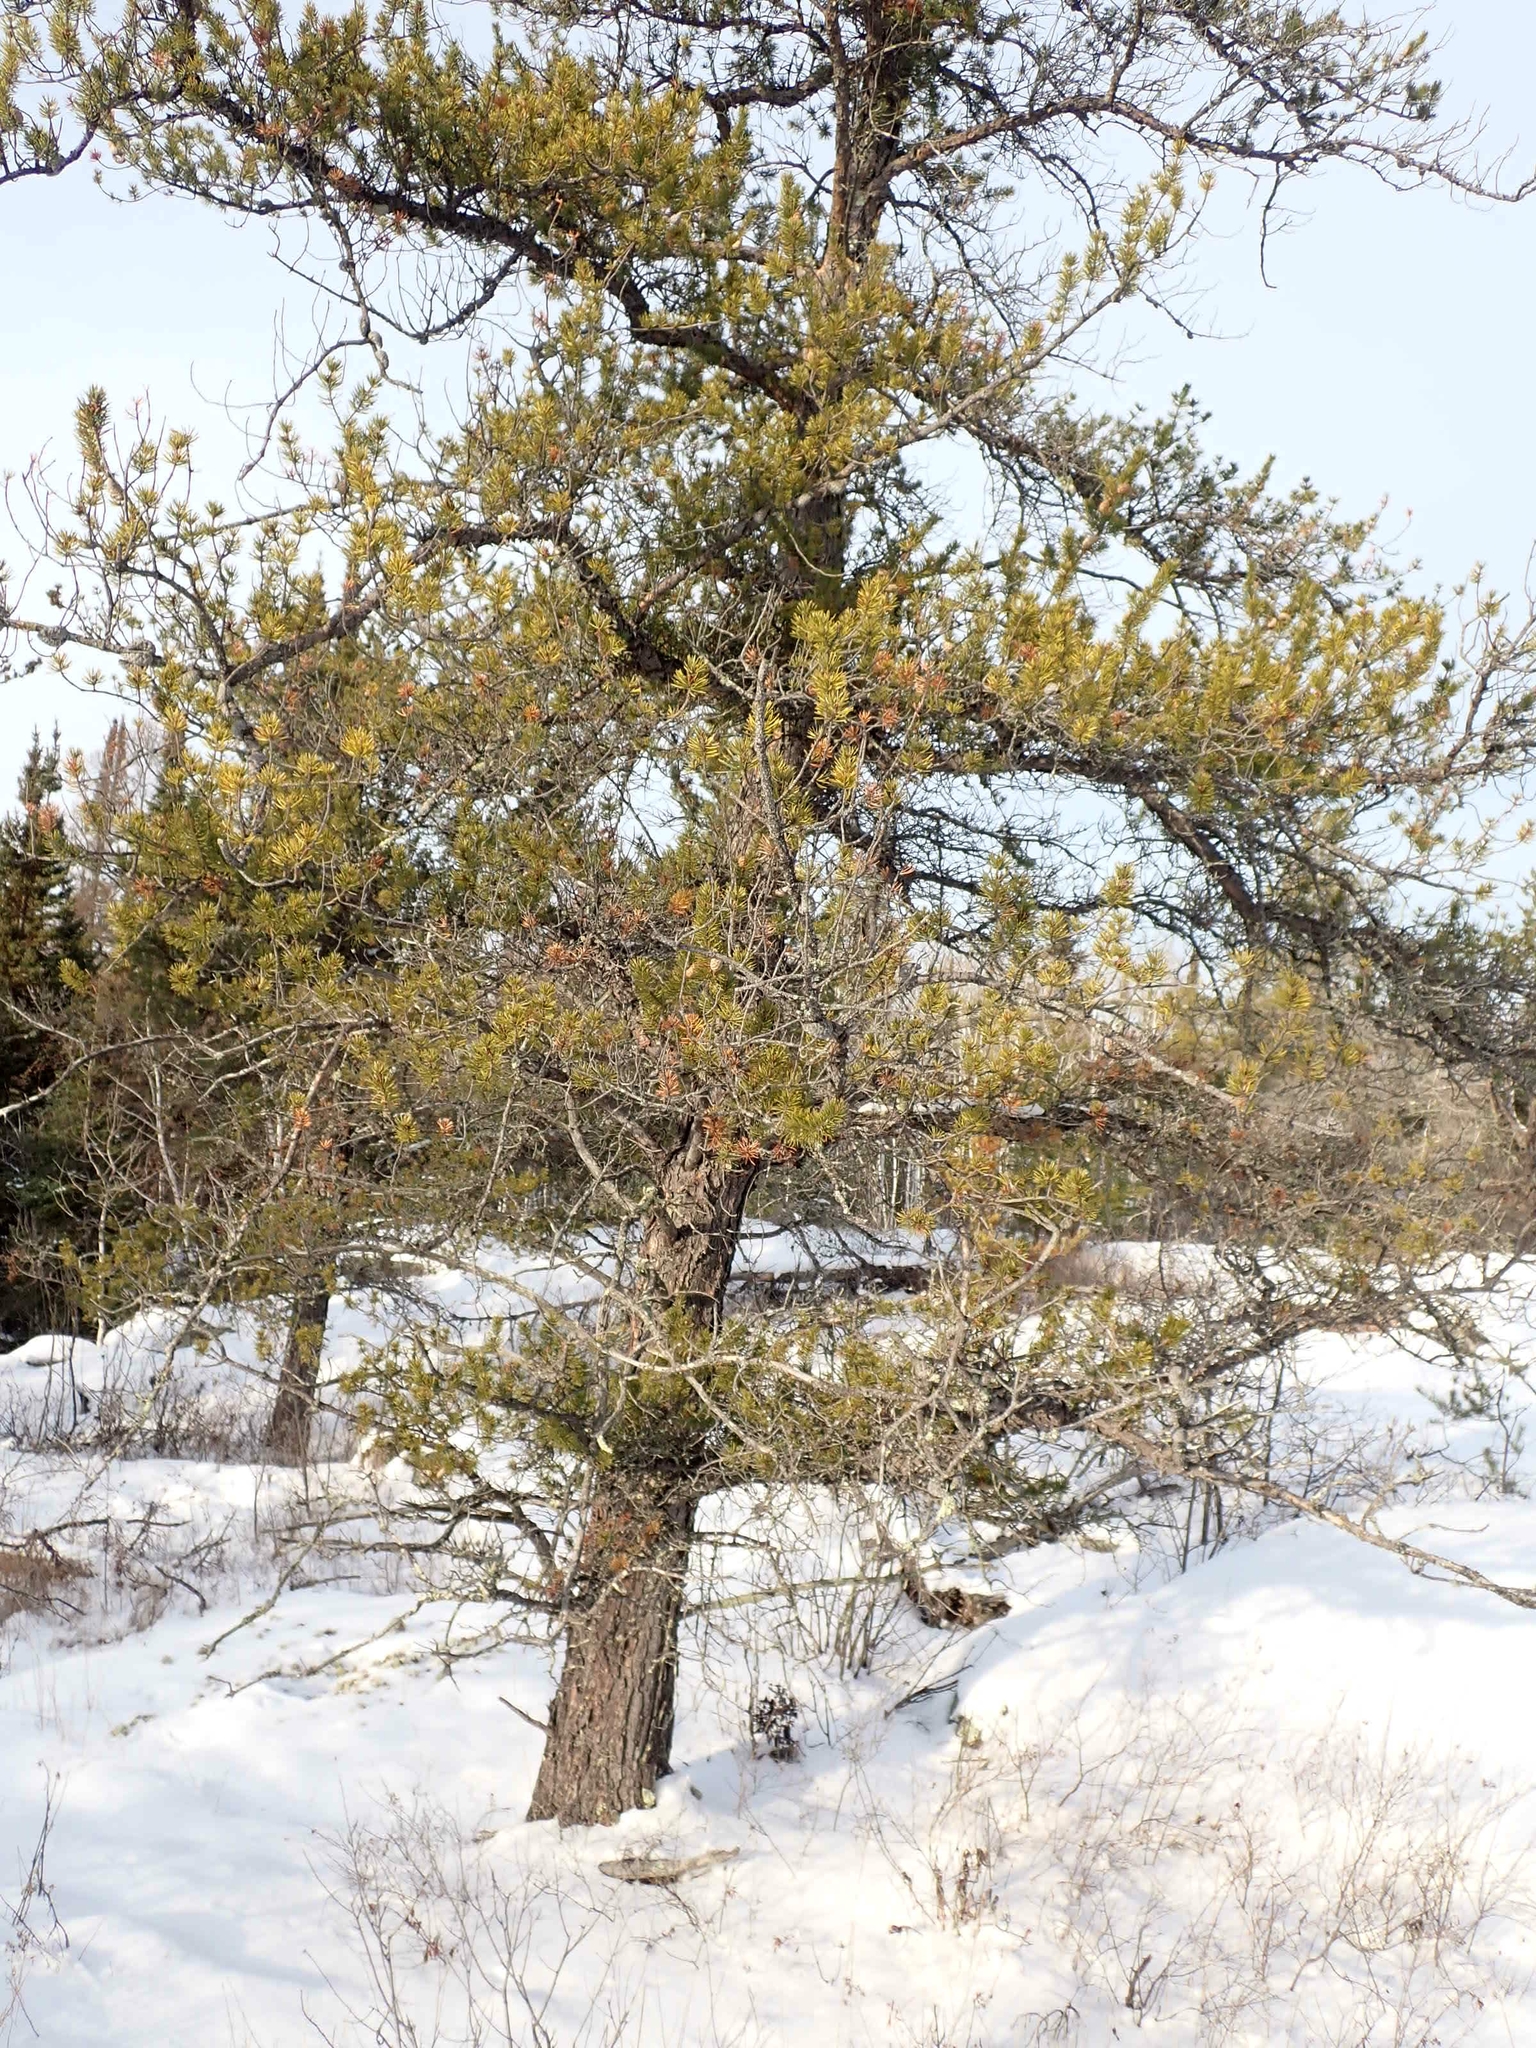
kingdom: Plantae
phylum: Tracheophyta
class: Pinopsida
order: Pinales
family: Pinaceae
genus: Pinus
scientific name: Pinus banksiana
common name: Jack pine
